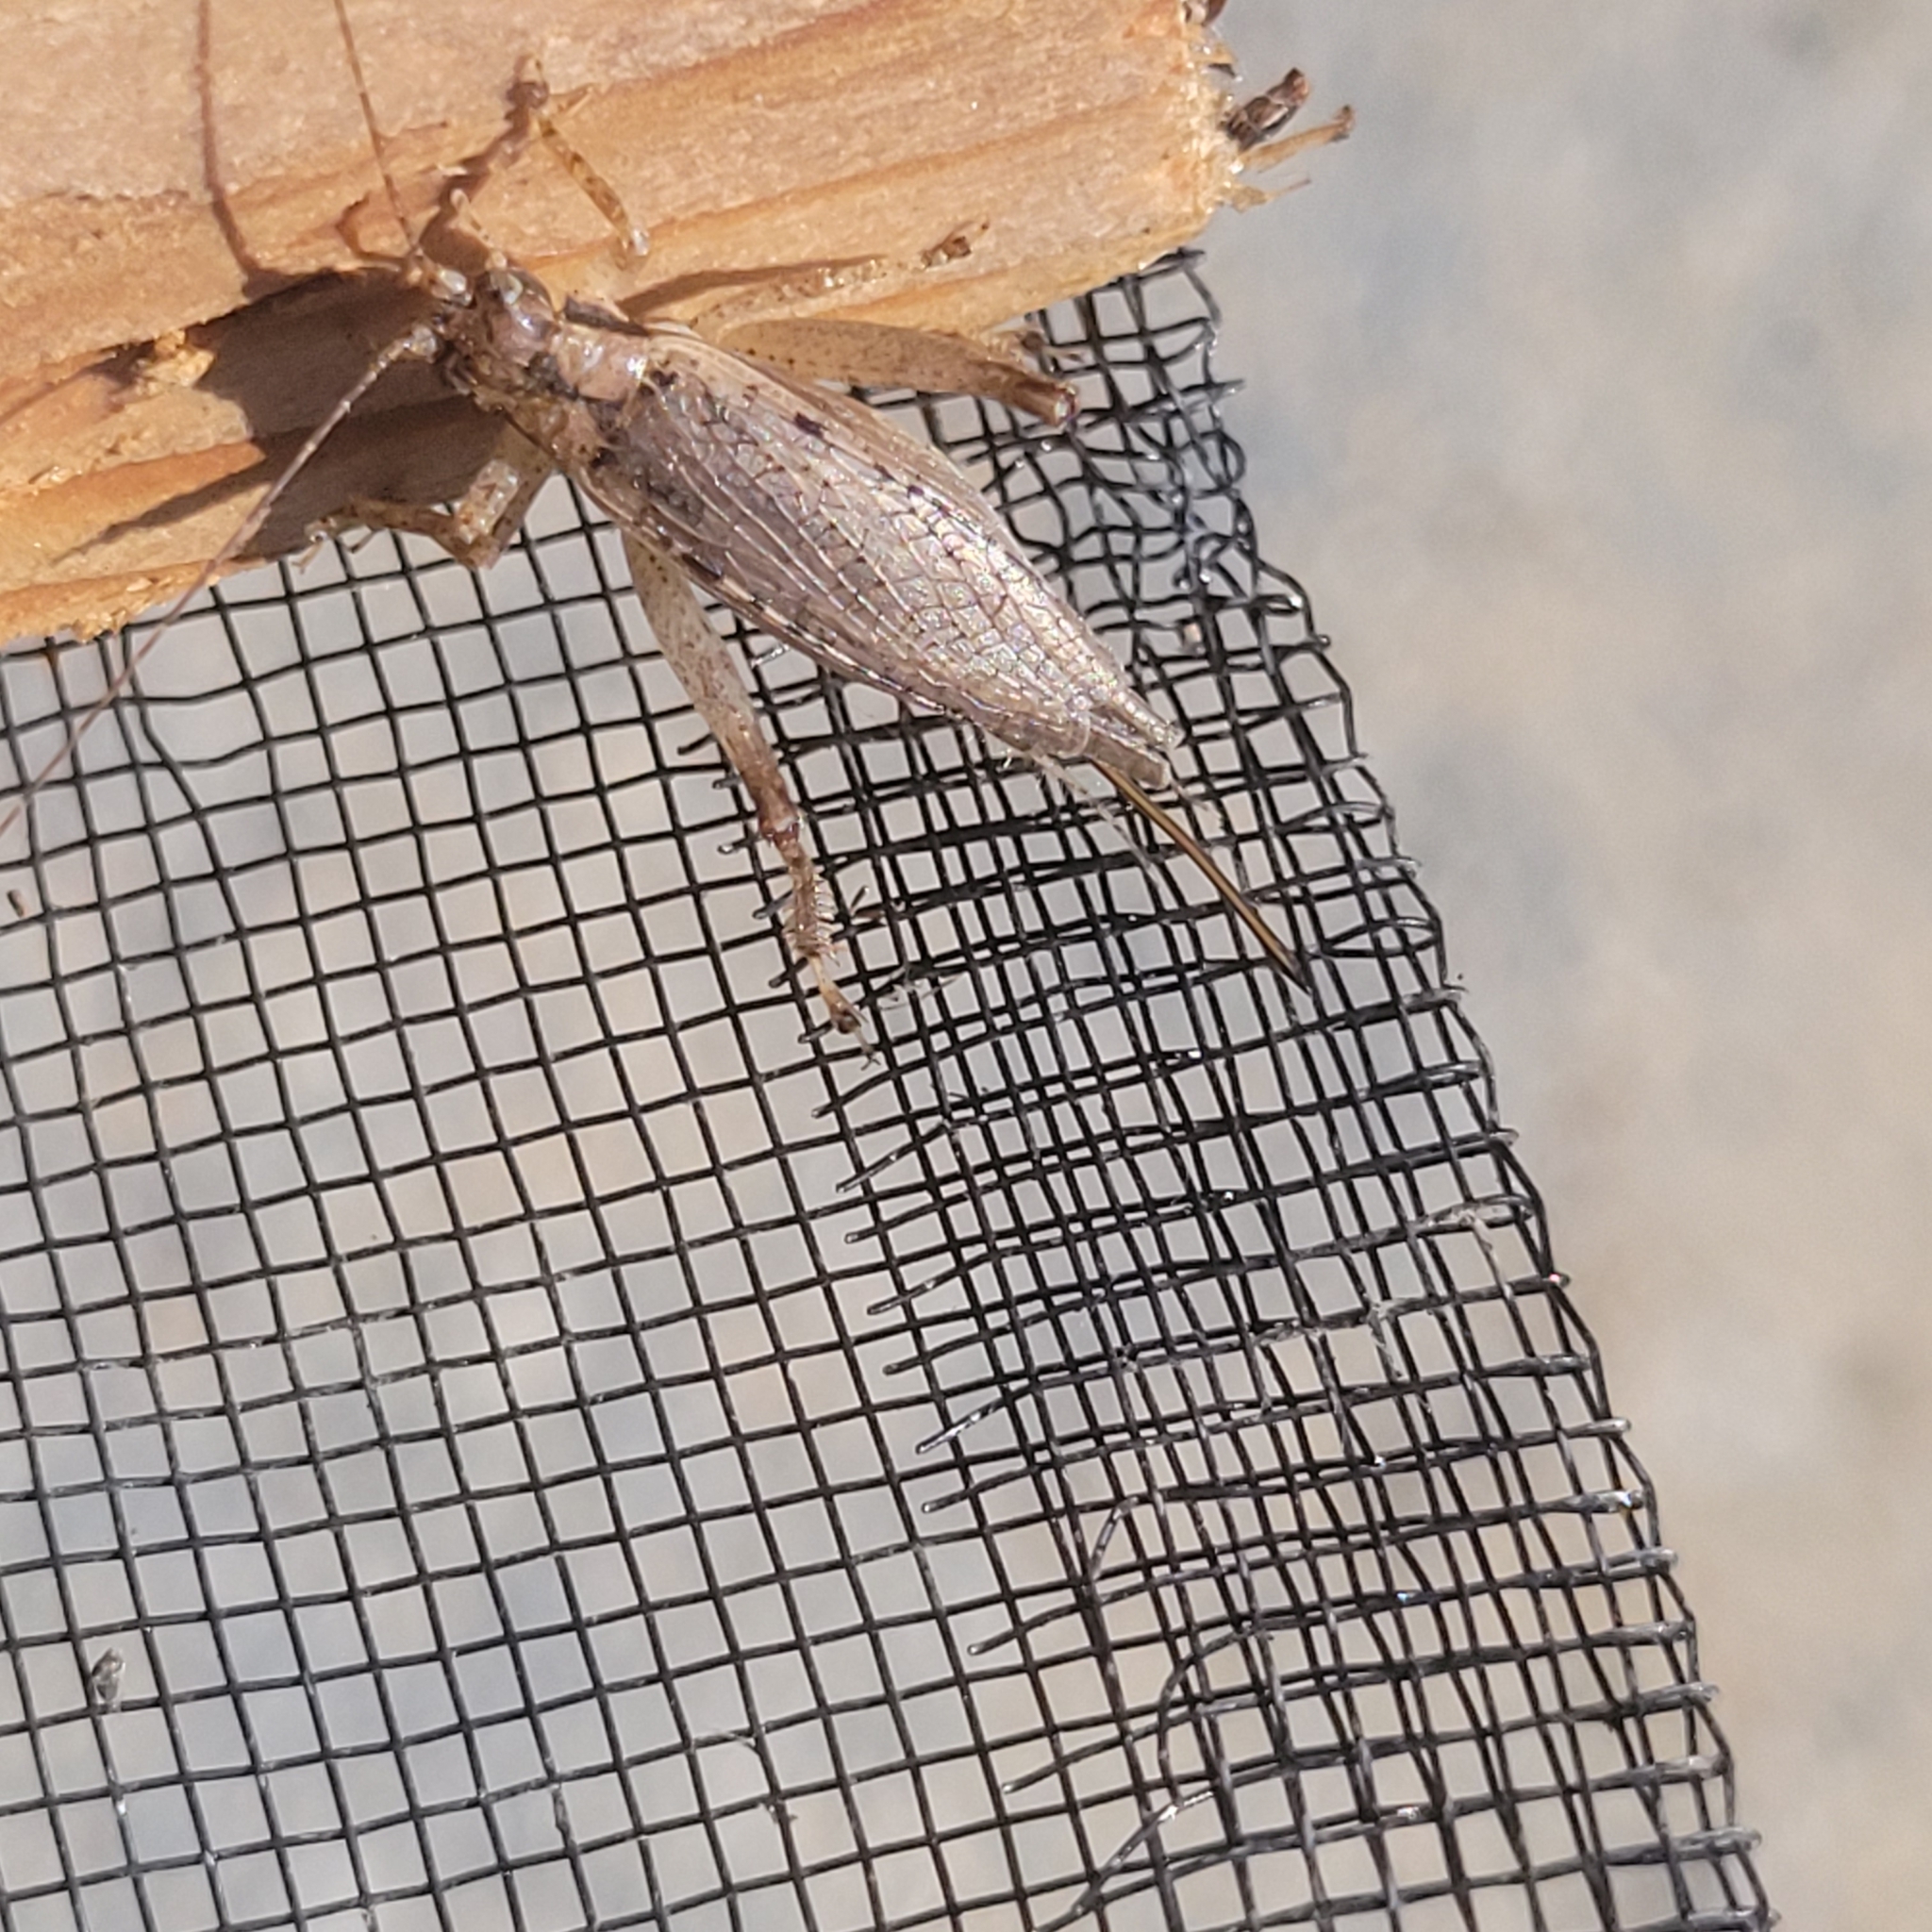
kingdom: Animalia
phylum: Arthropoda
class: Insecta
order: Orthoptera
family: Gryllidae
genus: Hapithus
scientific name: Hapithus saltator
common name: Jumping bush cricket
